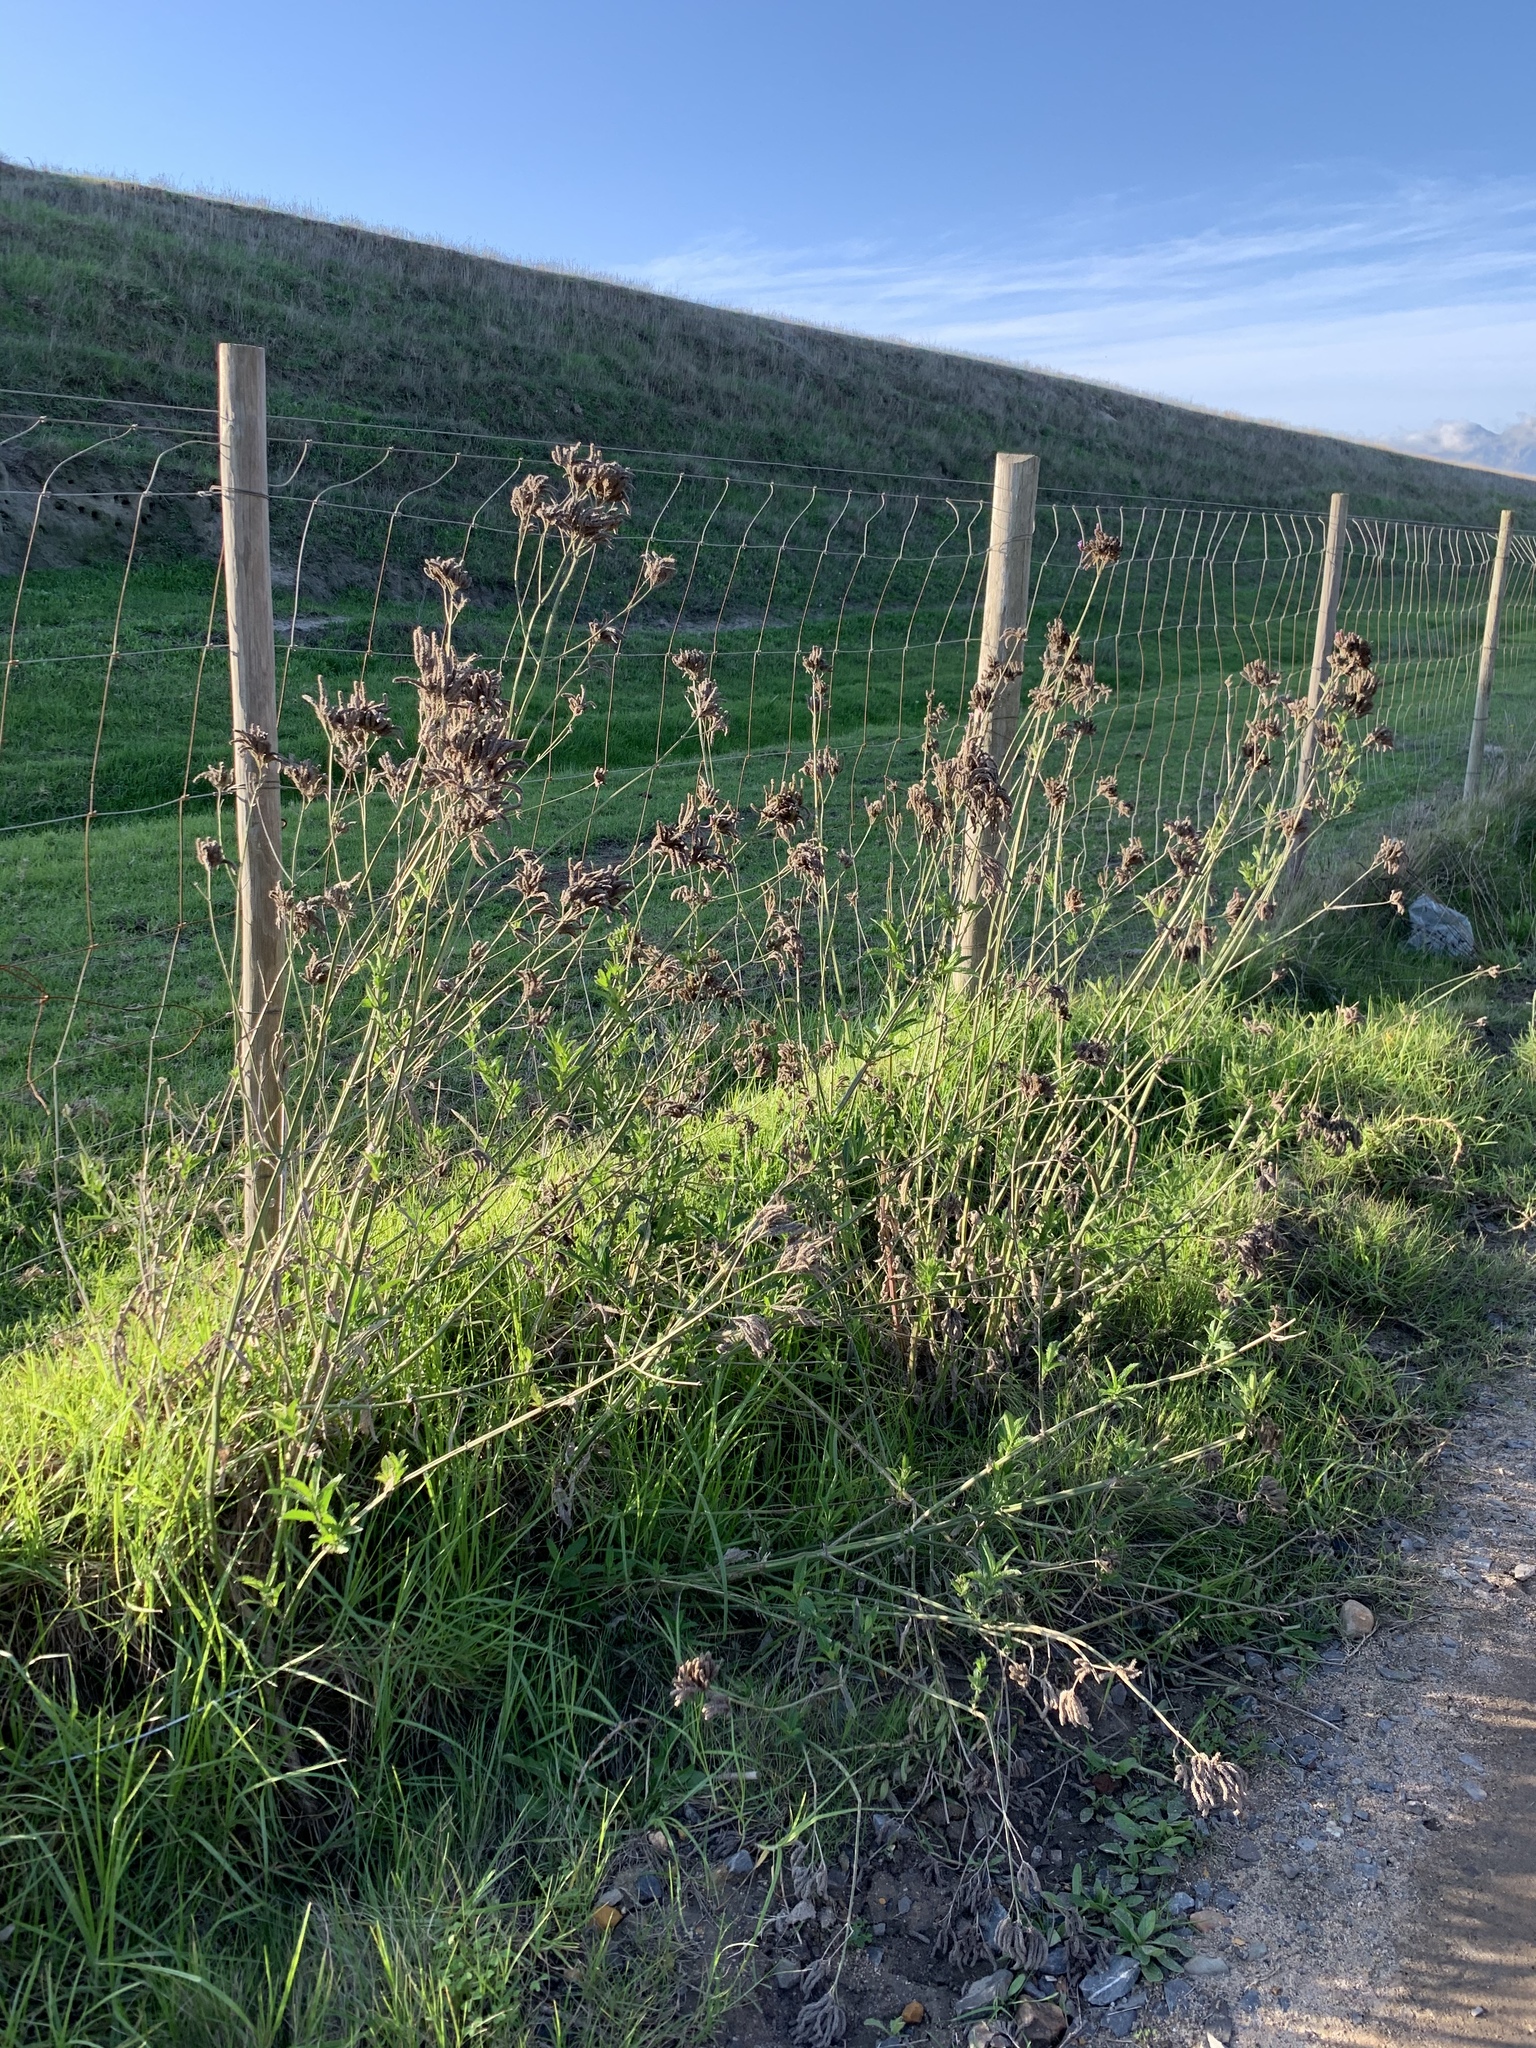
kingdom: Plantae
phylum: Tracheophyta
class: Magnoliopsida
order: Lamiales
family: Verbenaceae
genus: Verbena
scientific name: Verbena bonariensis
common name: Purpletop vervain
